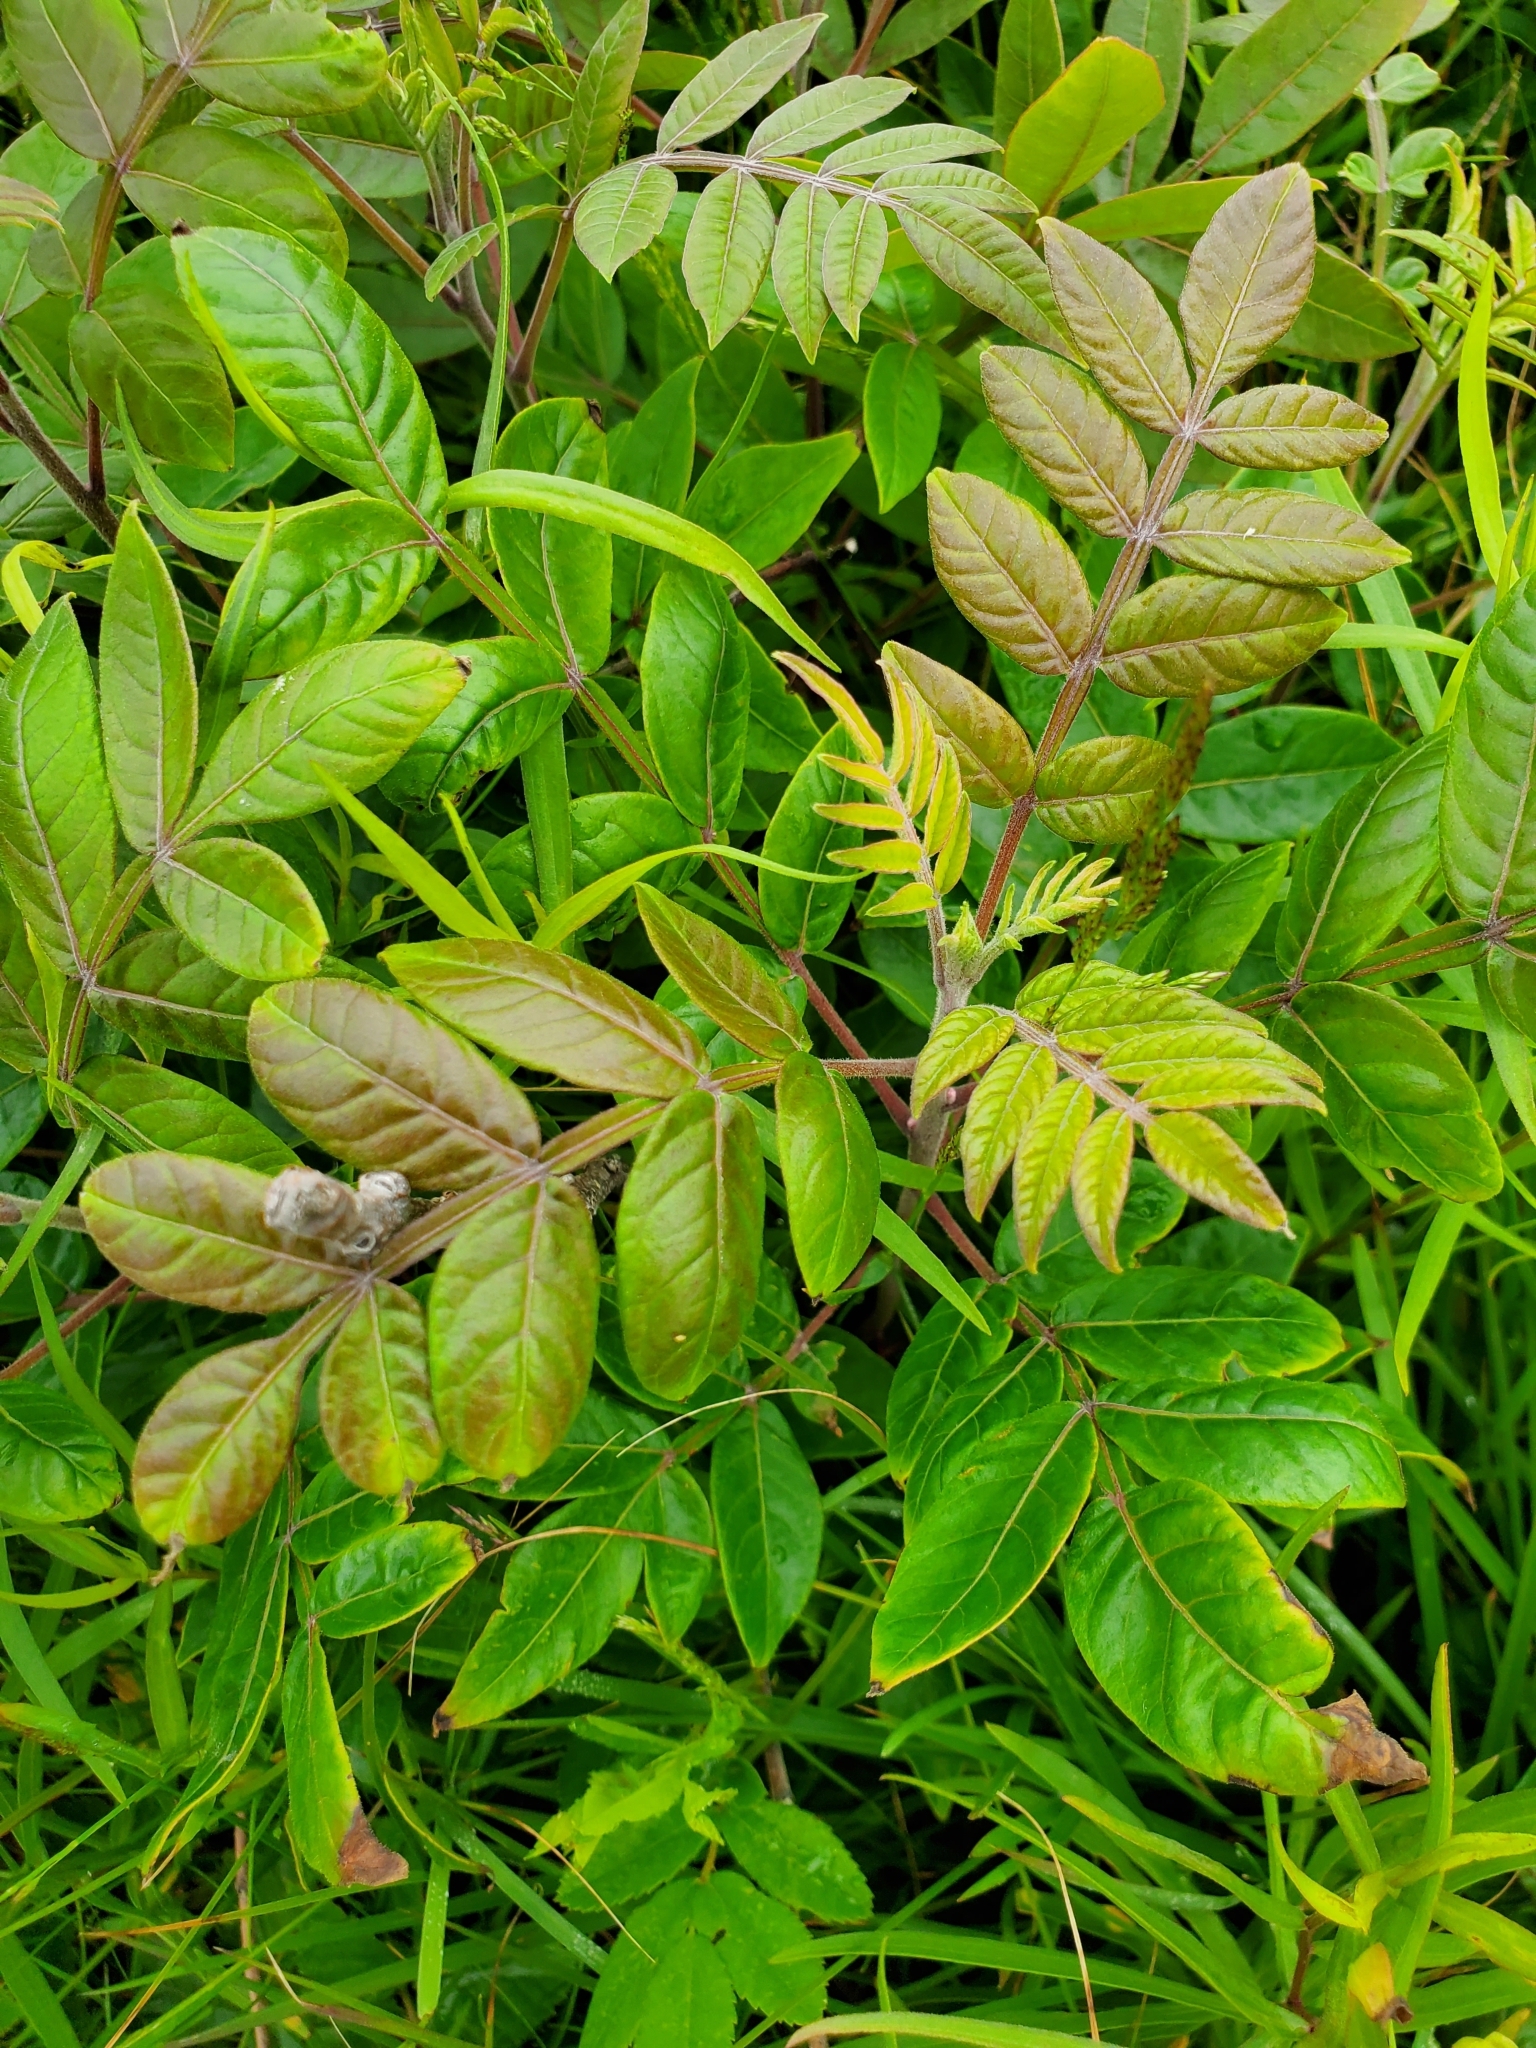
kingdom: Plantae
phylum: Tracheophyta
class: Magnoliopsida
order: Sapindales
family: Anacardiaceae
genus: Rhus
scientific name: Rhus copallina
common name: Shining sumac
